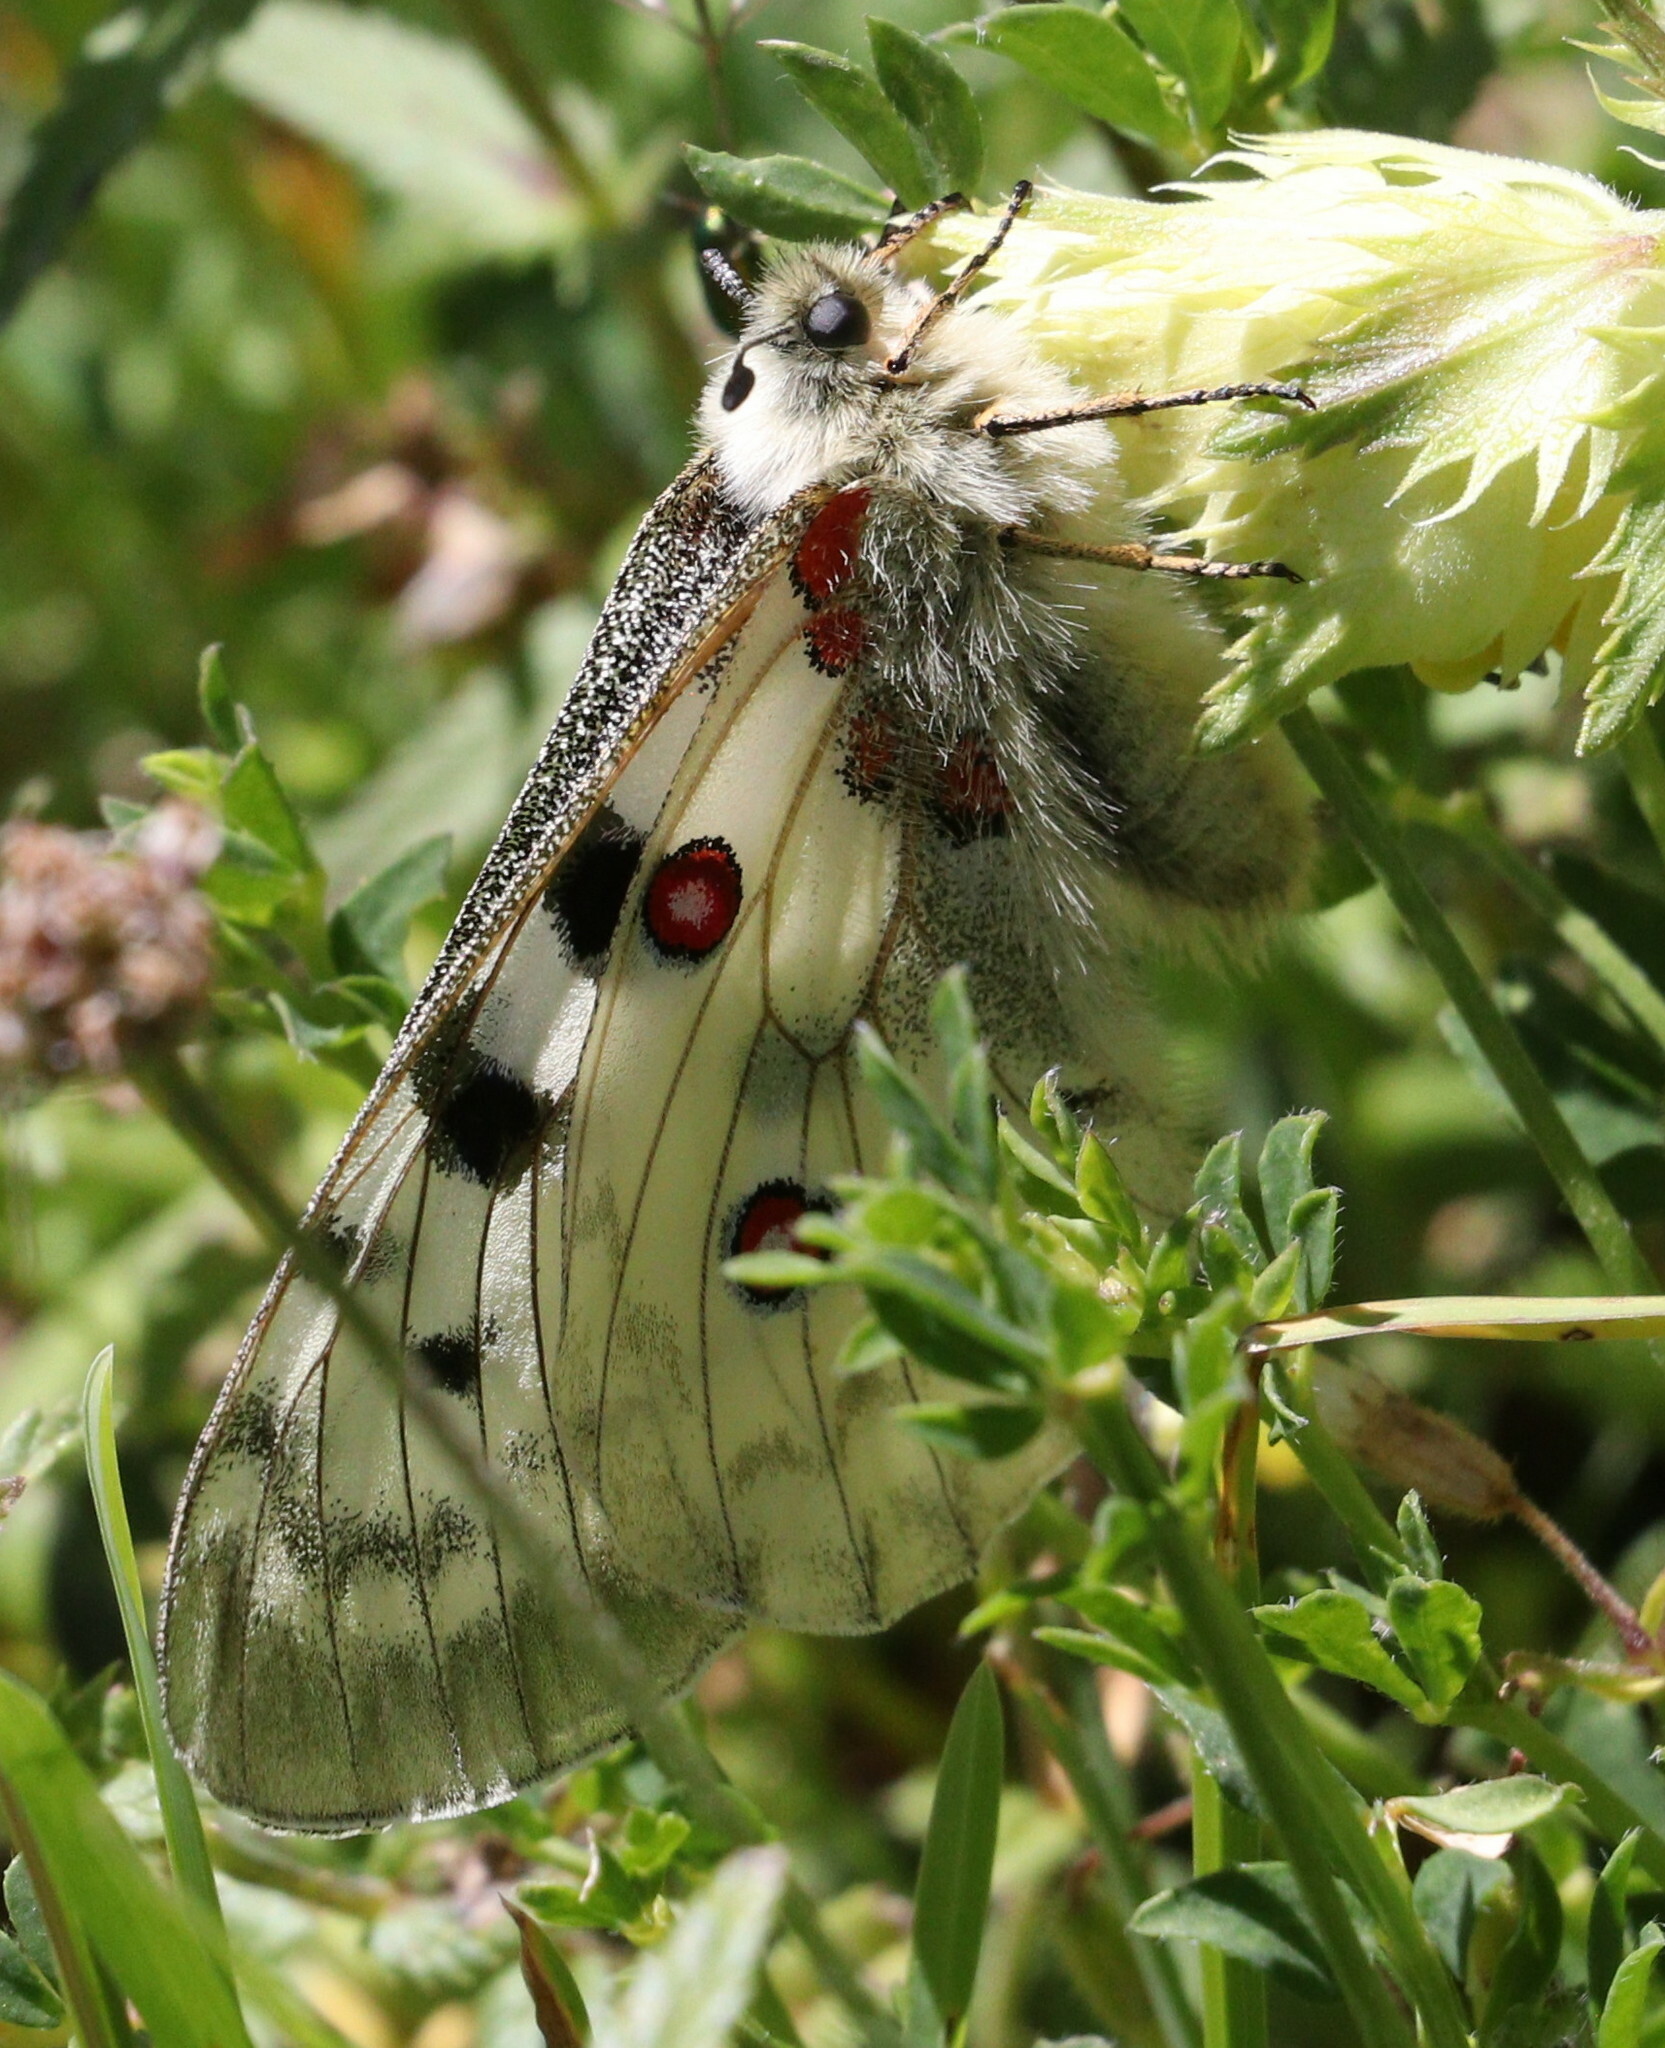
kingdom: Animalia
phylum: Arthropoda
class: Insecta
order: Lepidoptera
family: Papilionidae
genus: Parnassius
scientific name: Parnassius apollo
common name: Apollo
